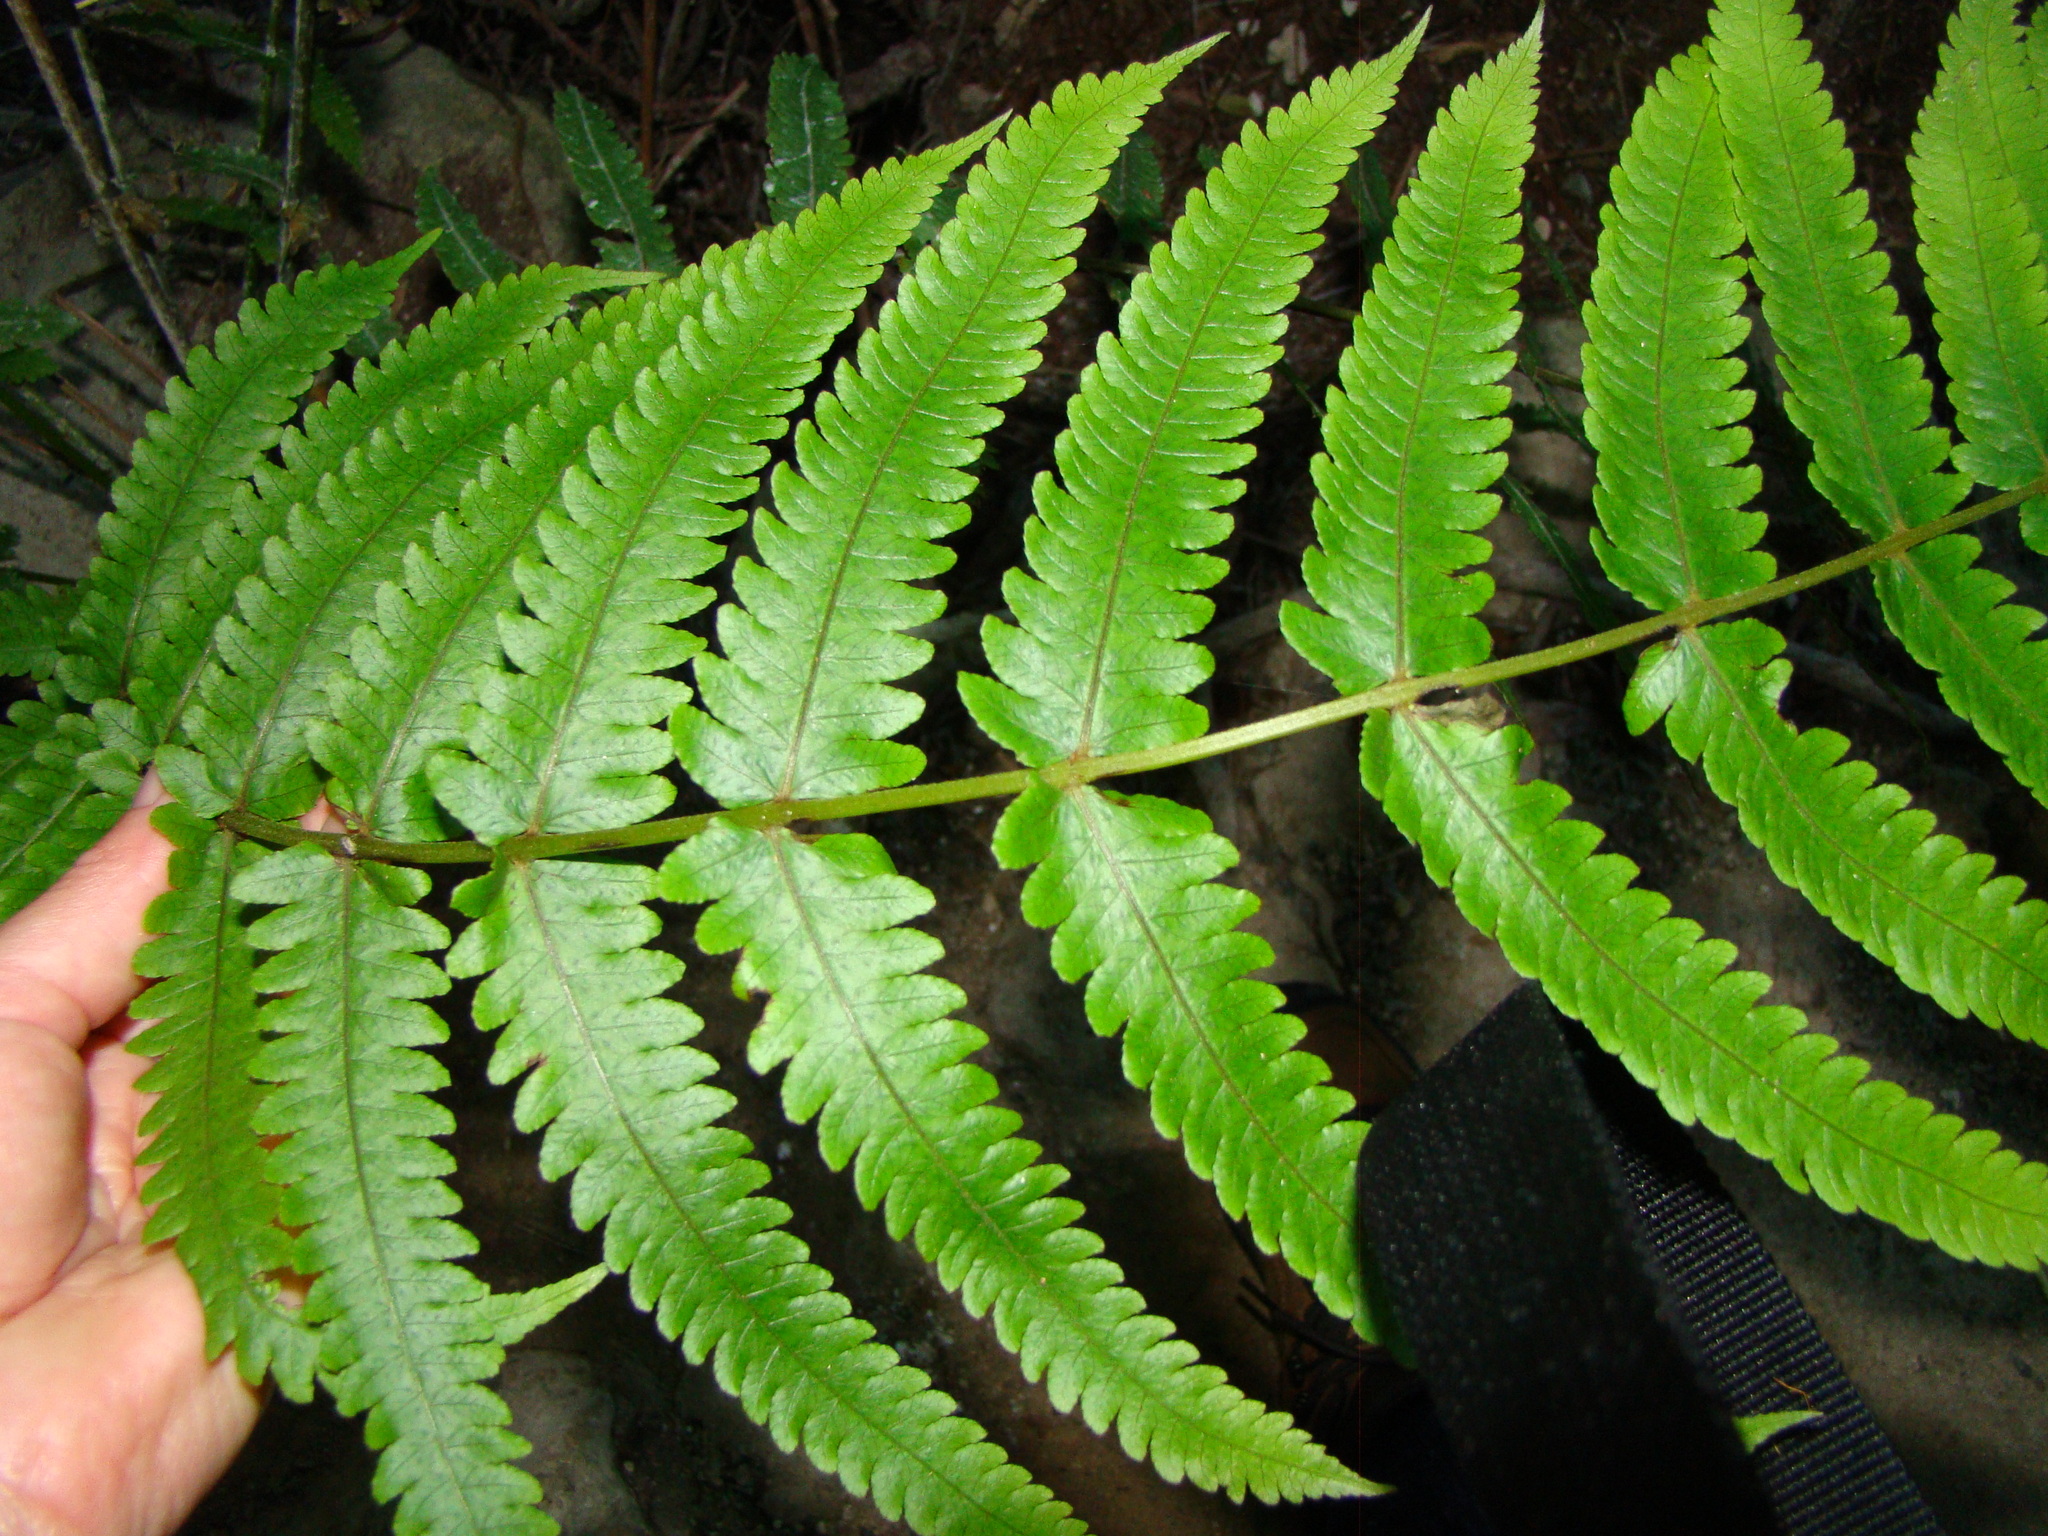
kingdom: Plantae
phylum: Tracheophyta
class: Polypodiopsida
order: Polypodiales
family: Thelypteridaceae
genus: Pakau
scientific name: Pakau pennigera
